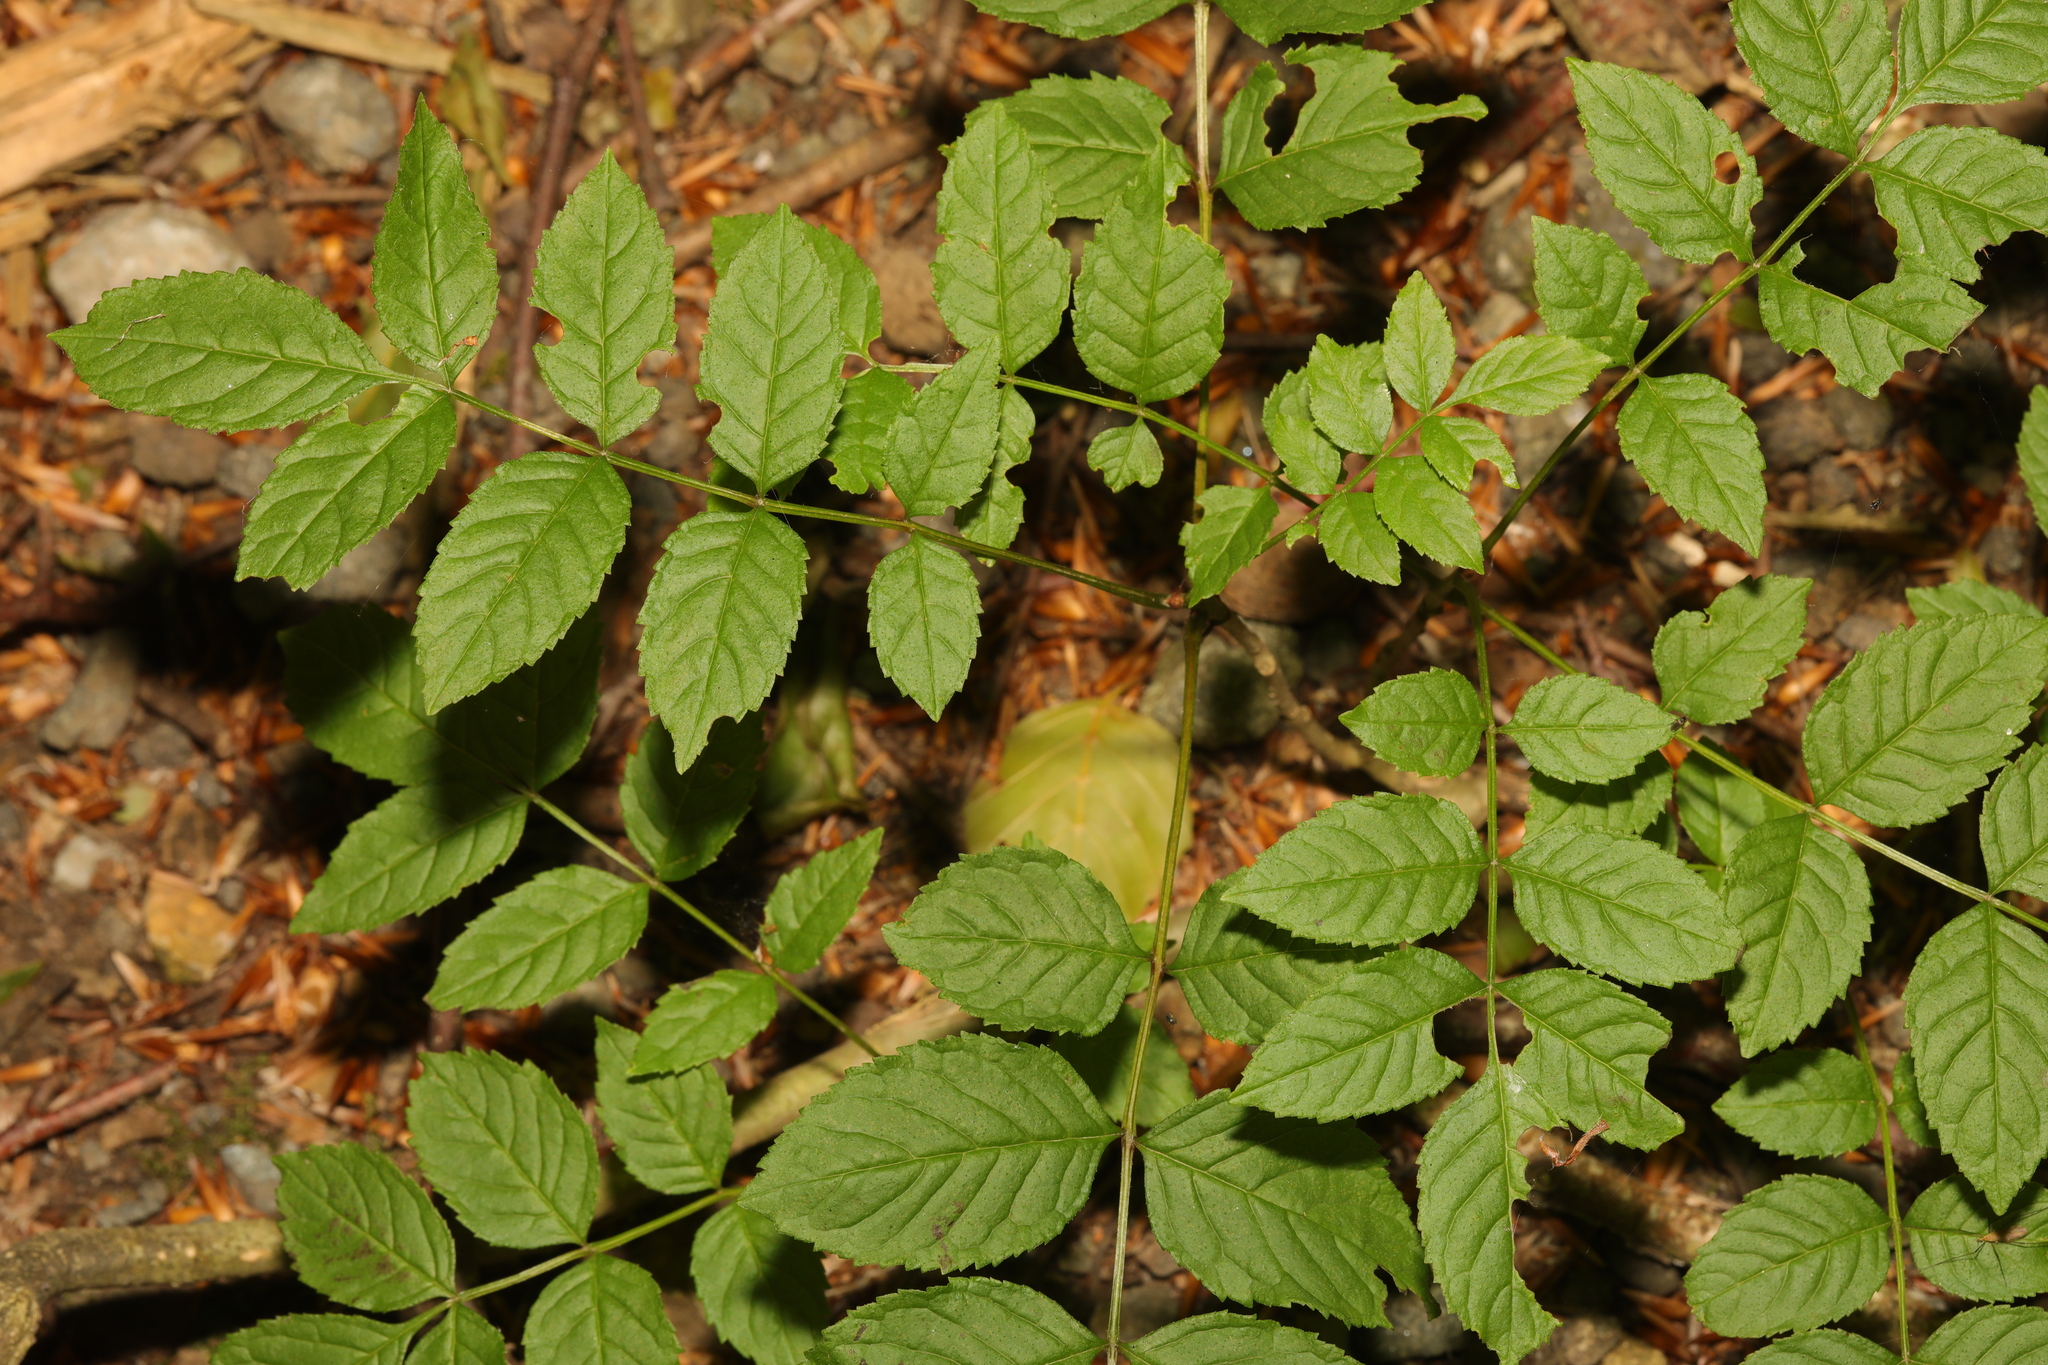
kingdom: Plantae
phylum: Tracheophyta
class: Magnoliopsida
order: Lamiales
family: Oleaceae
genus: Fraxinus
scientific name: Fraxinus excelsior
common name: European ash
